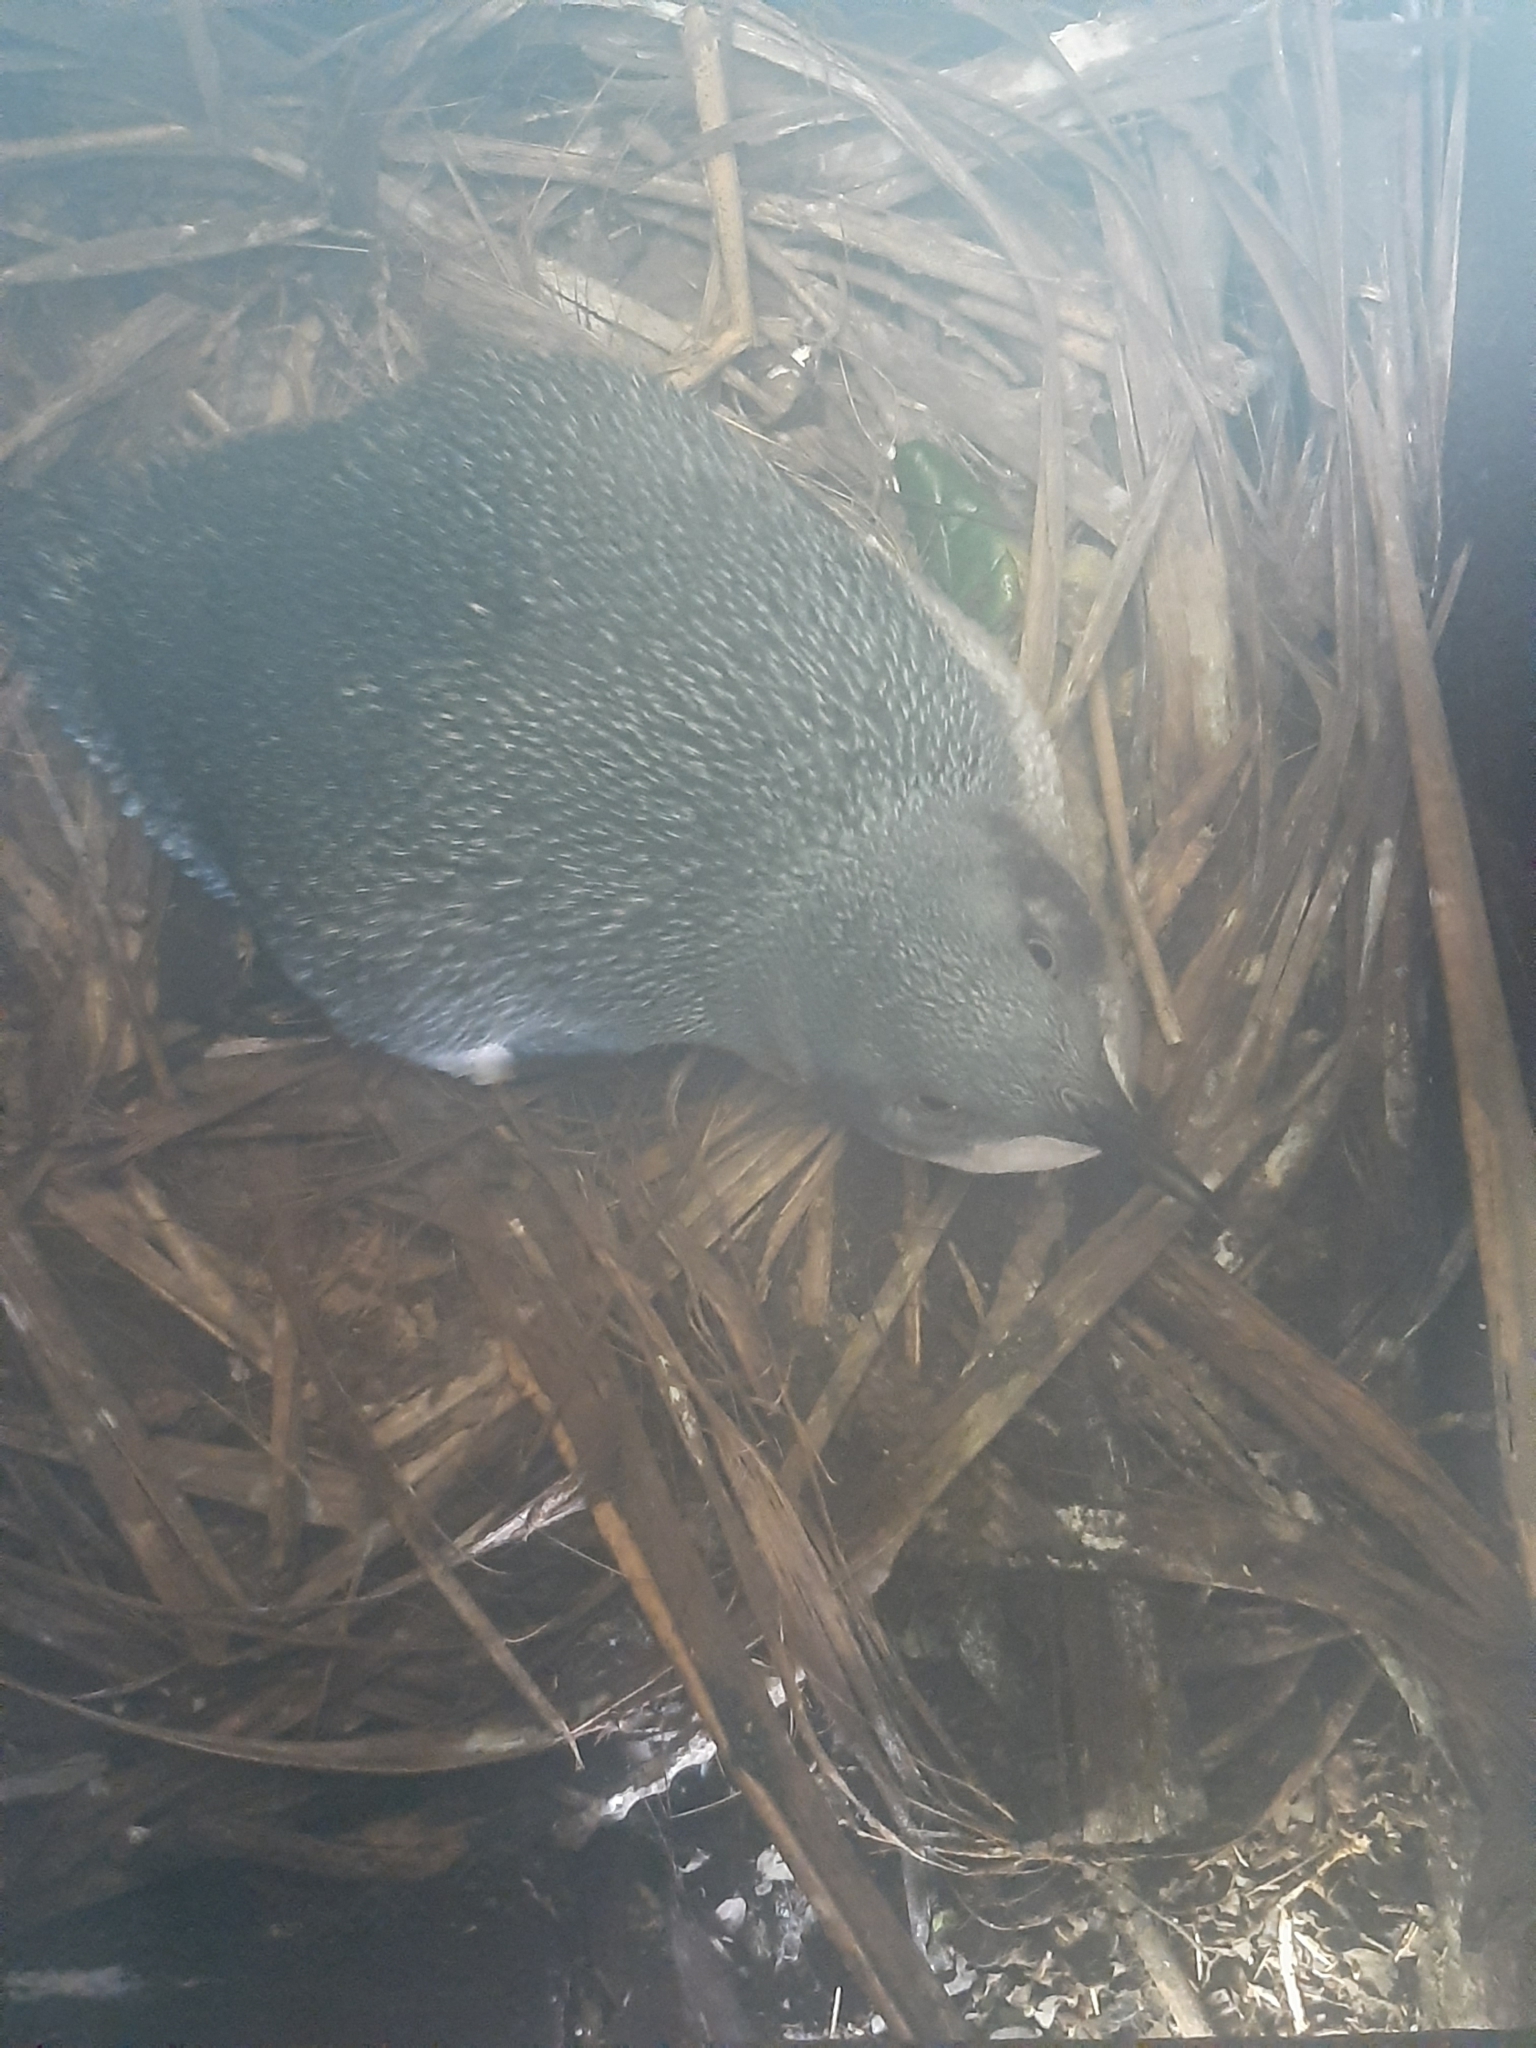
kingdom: Animalia
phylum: Chordata
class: Aves
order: Sphenisciformes
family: Spheniscidae
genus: Eudyptula
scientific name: Eudyptula minor
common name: Little penguin
